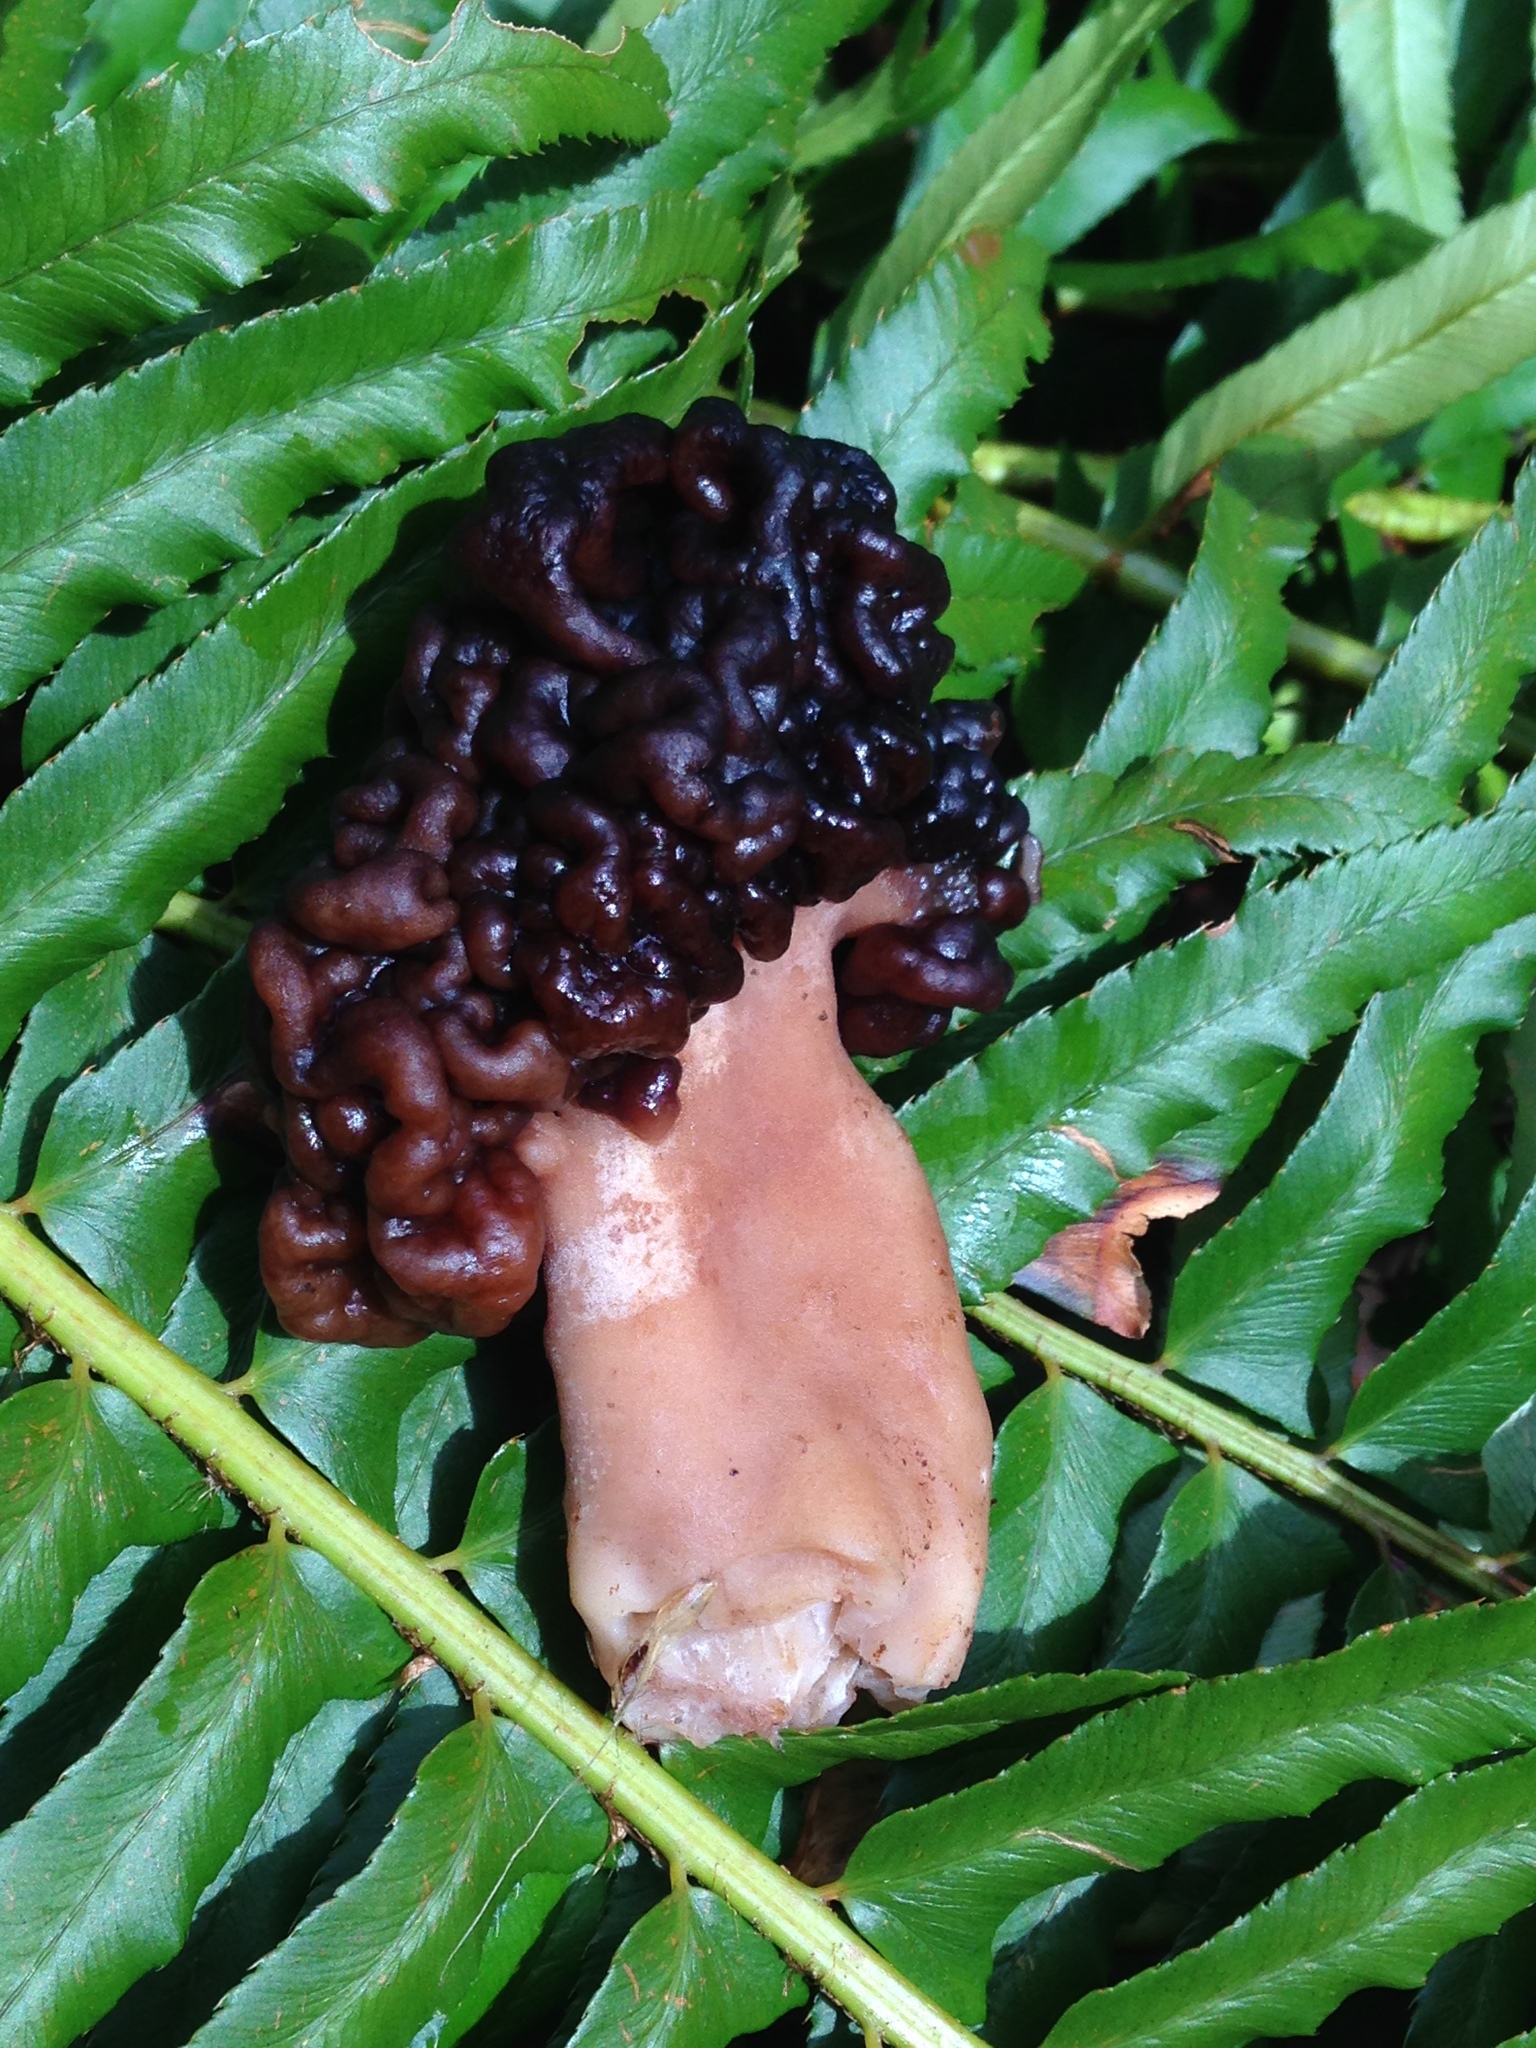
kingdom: Fungi
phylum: Ascomycota
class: Pezizomycetes
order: Pezizales
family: Discinaceae
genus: Gyromitra
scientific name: Gyromitra esculenta
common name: False morel
